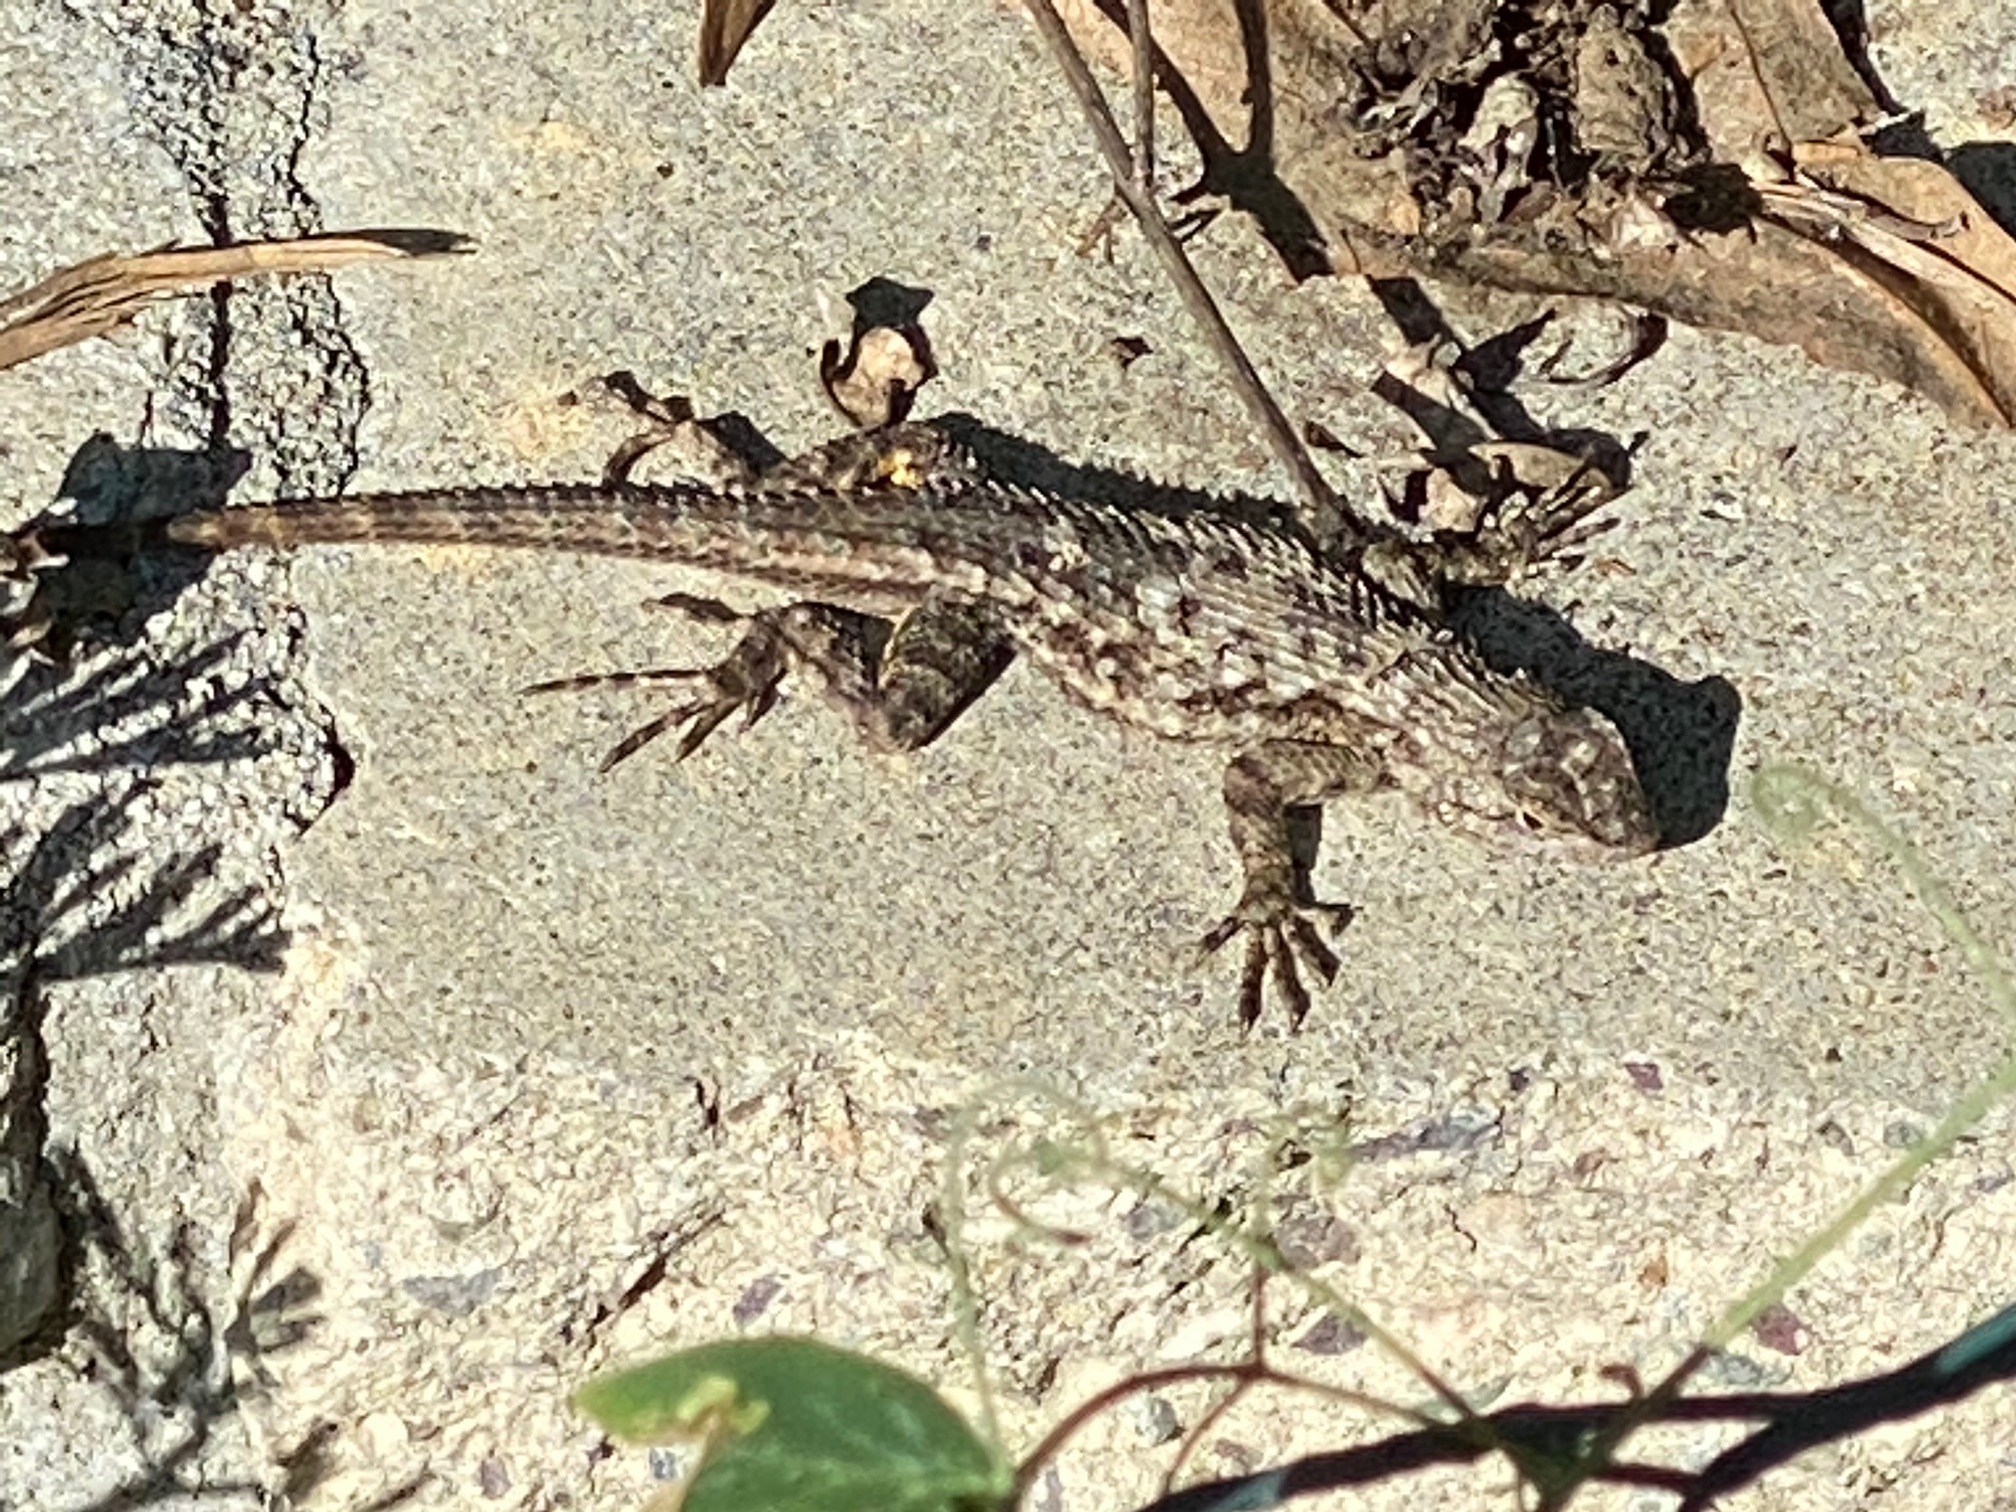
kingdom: Animalia
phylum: Chordata
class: Squamata
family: Phrynosomatidae
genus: Sceloporus
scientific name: Sceloporus occidentalis
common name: Western fence lizard
